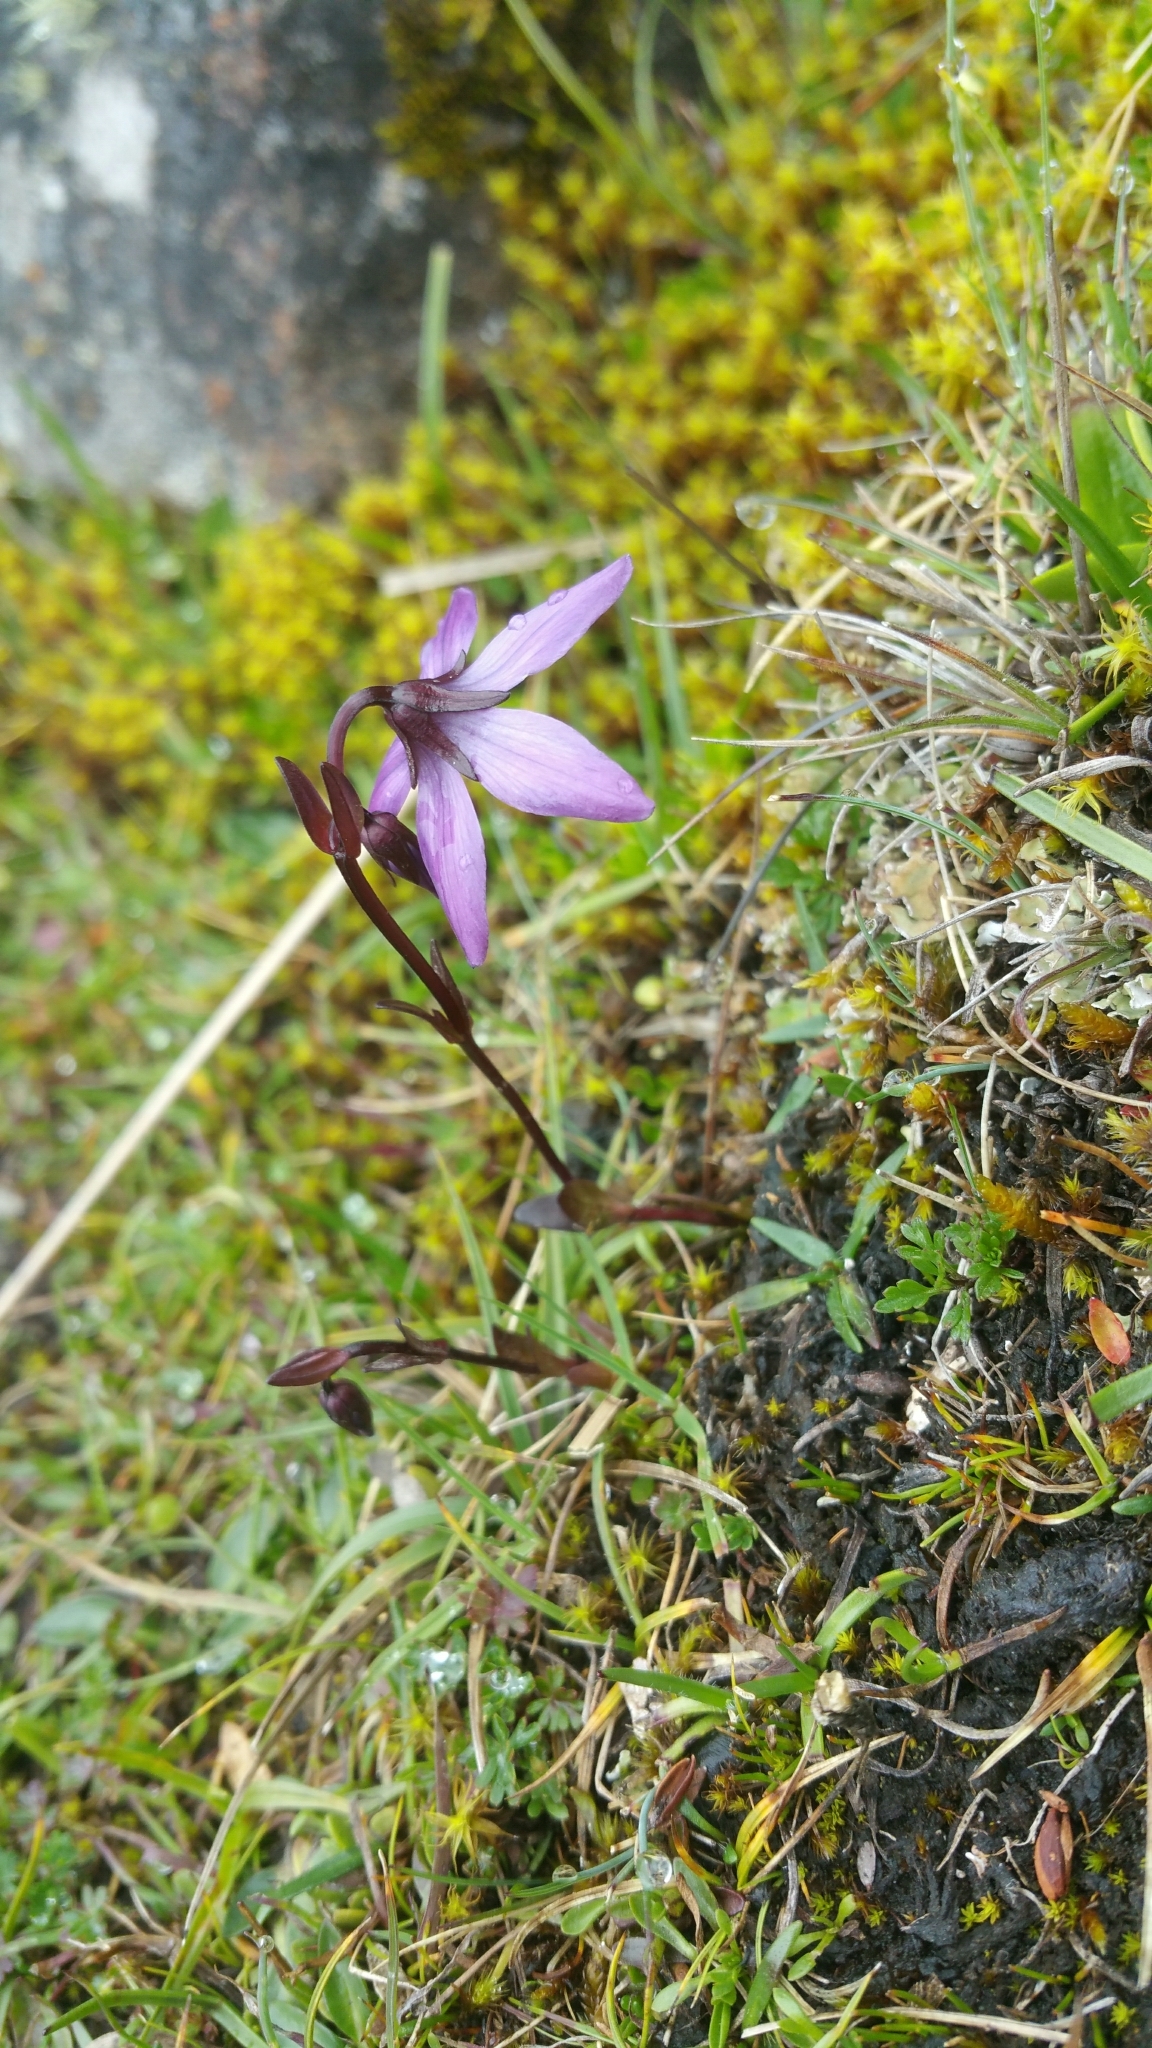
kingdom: Plantae
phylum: Tracheophyta
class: Magnoliopsida
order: Gentianales
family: Gentianaceae
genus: Gentianella
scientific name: Gentianella rapunculoides
